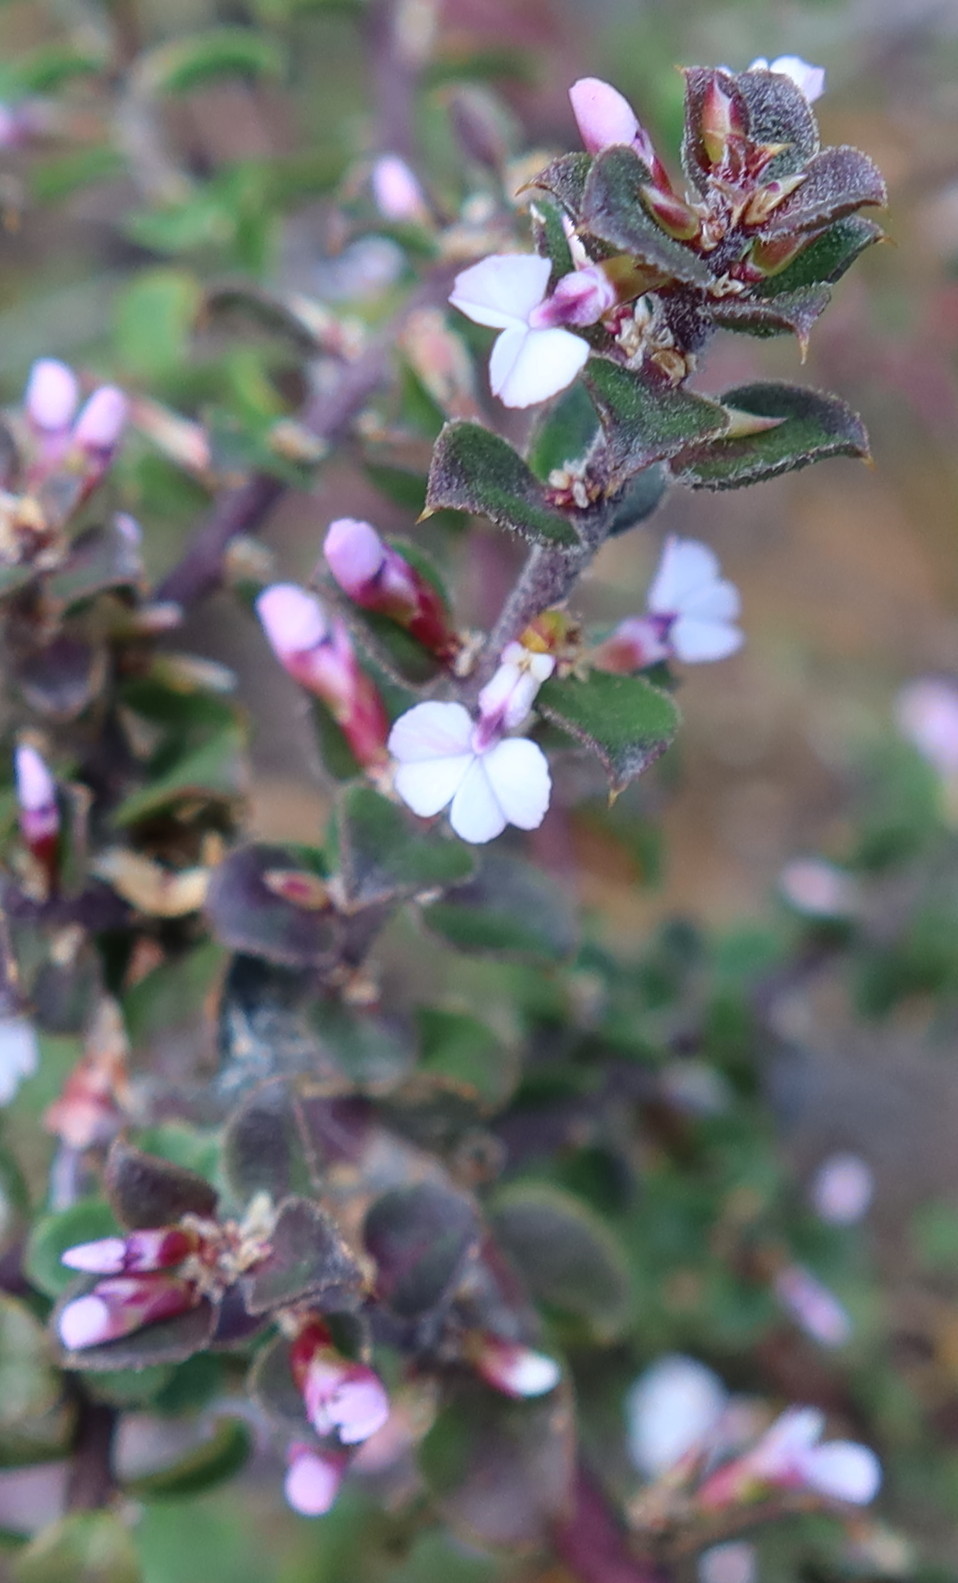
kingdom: Plantae
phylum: Tracheophyta
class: Magnoliopsida
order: Fabales
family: Polygalaceae
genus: Muraltia
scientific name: Muraltia orbicularis
